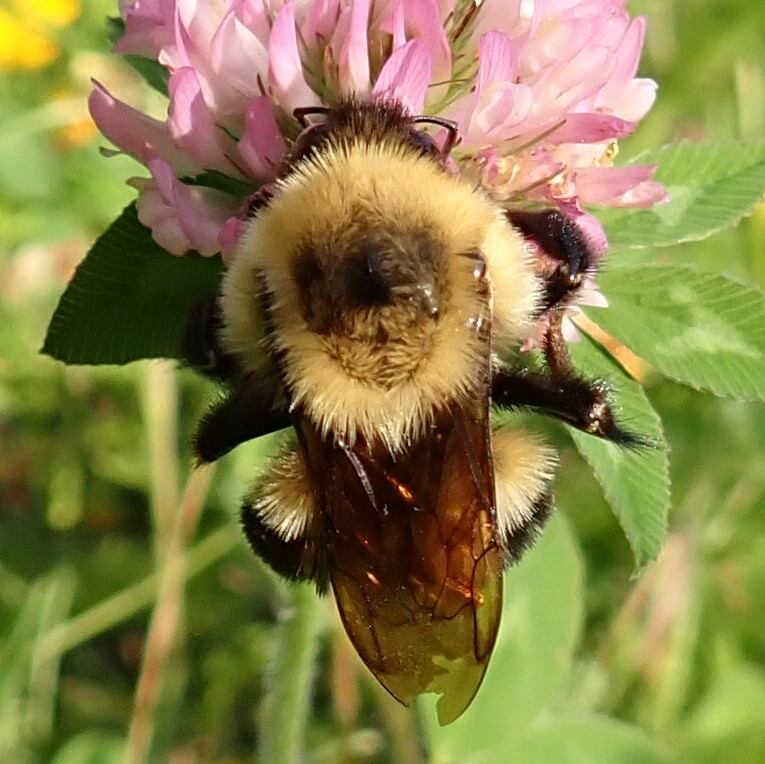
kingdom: Animalia
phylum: Arthropoda
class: Insecta
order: Hymenoptera
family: Apidae
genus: Bombus
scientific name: Bombus bimaculatus
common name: Two-spotted bumble bee
